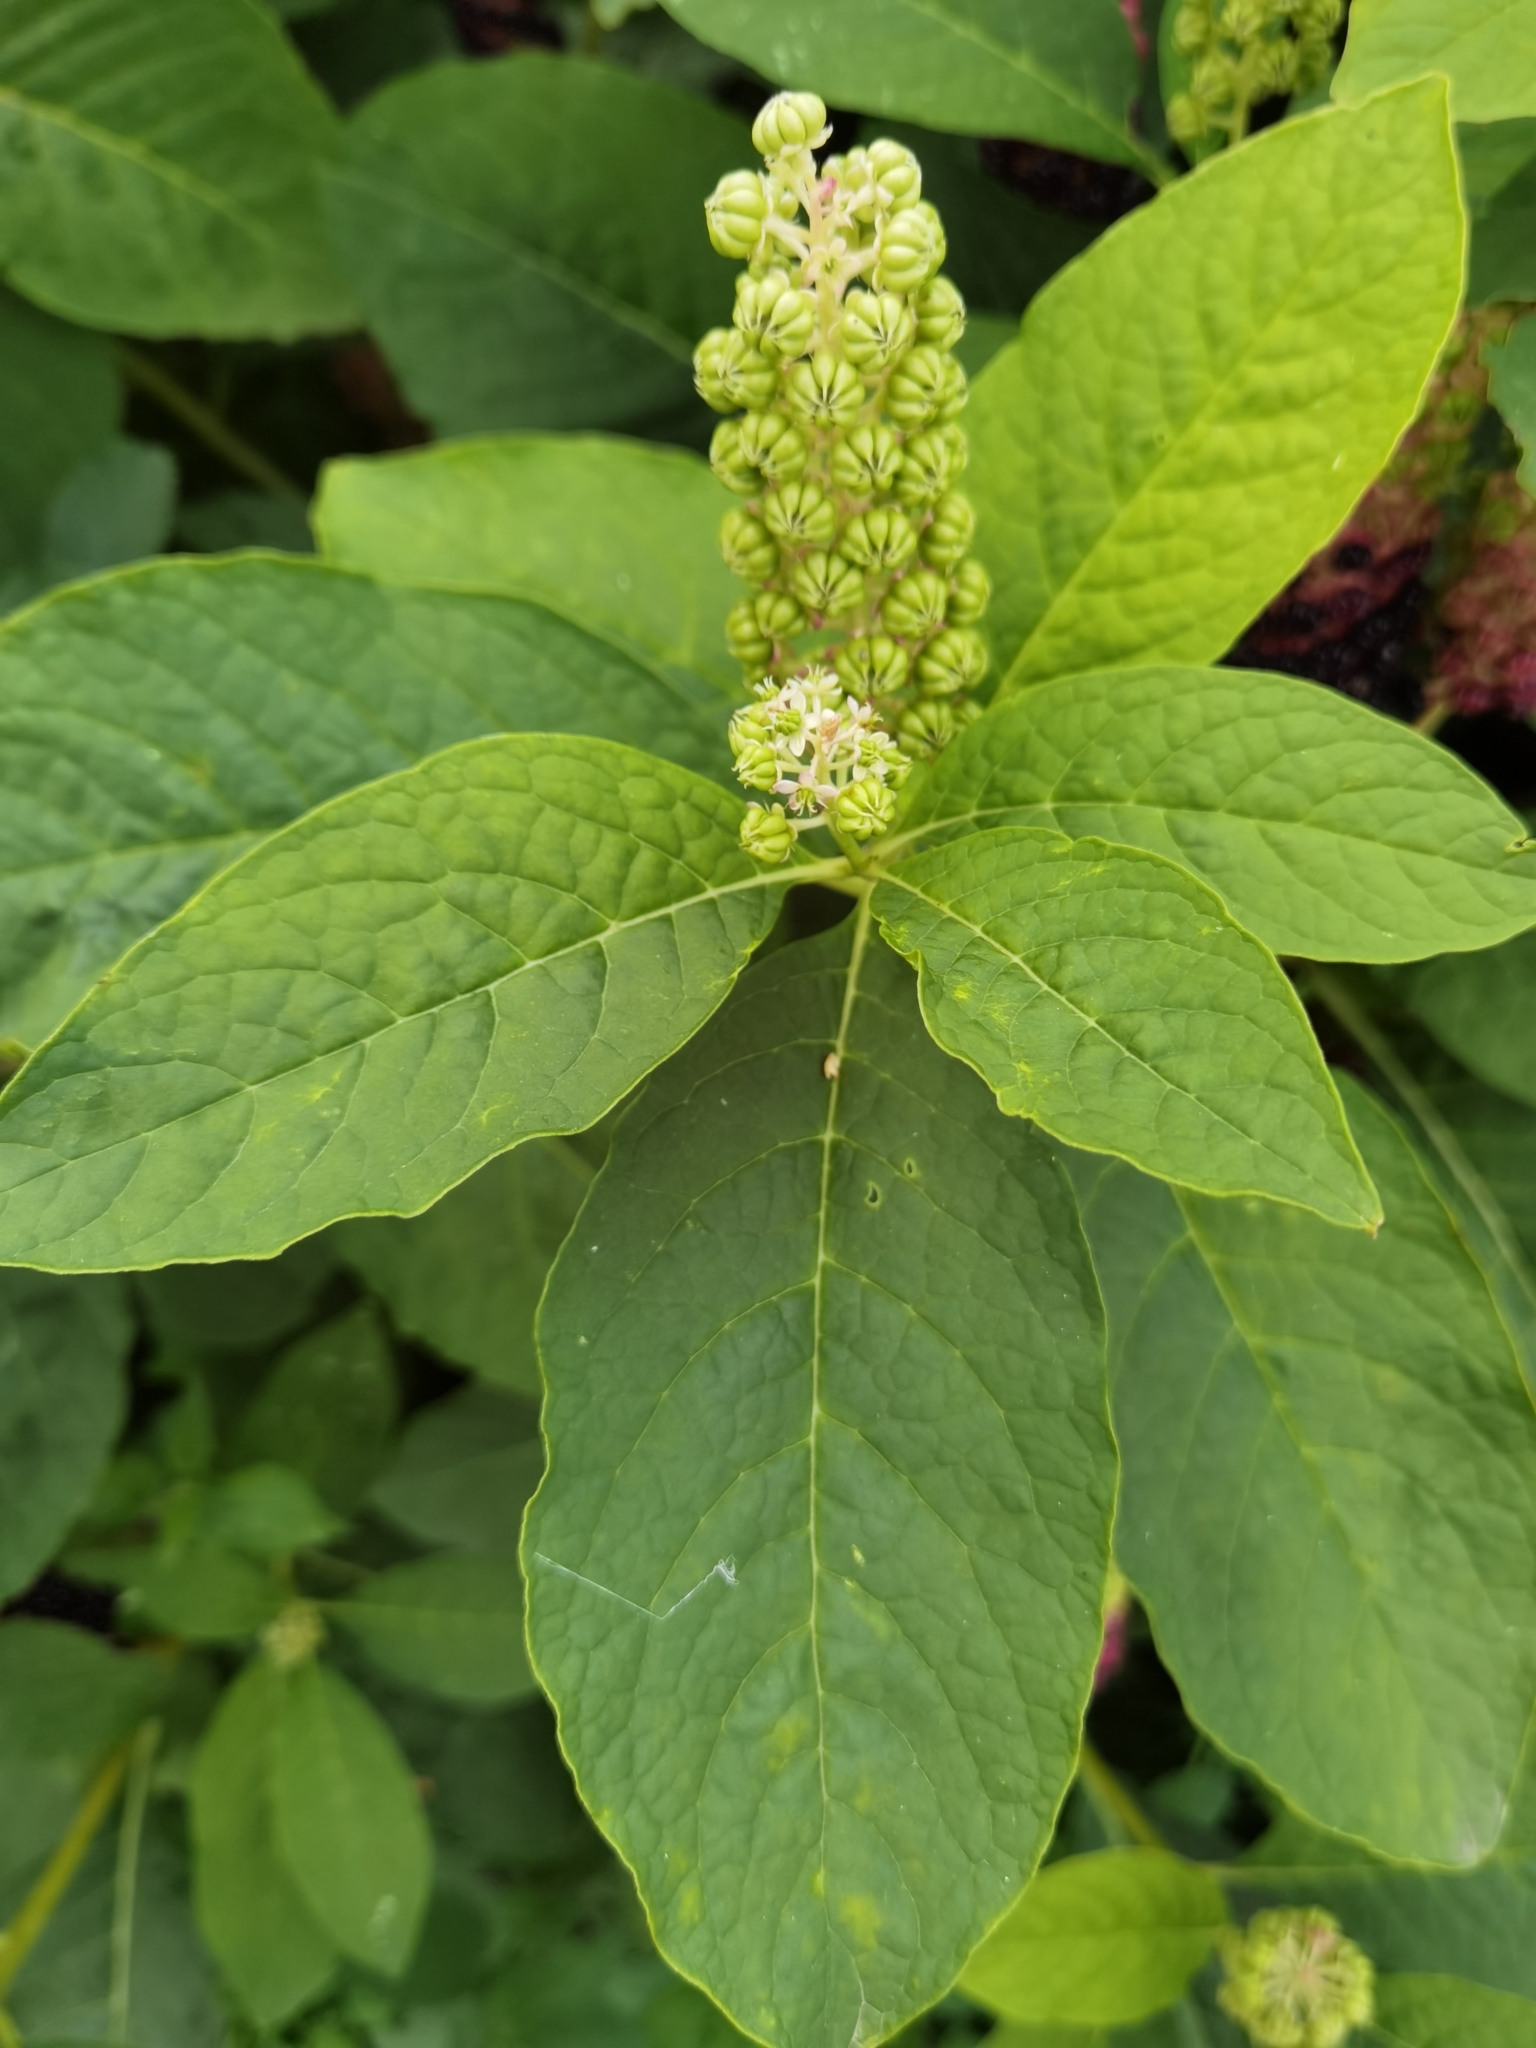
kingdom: Plantae
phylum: Tracheophyta
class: Magnoliopsida
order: Caryophyllales
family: Phytolaccaceae
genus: Phytolacca
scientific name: Phytolacca acinosa
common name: Indian pokeweed
